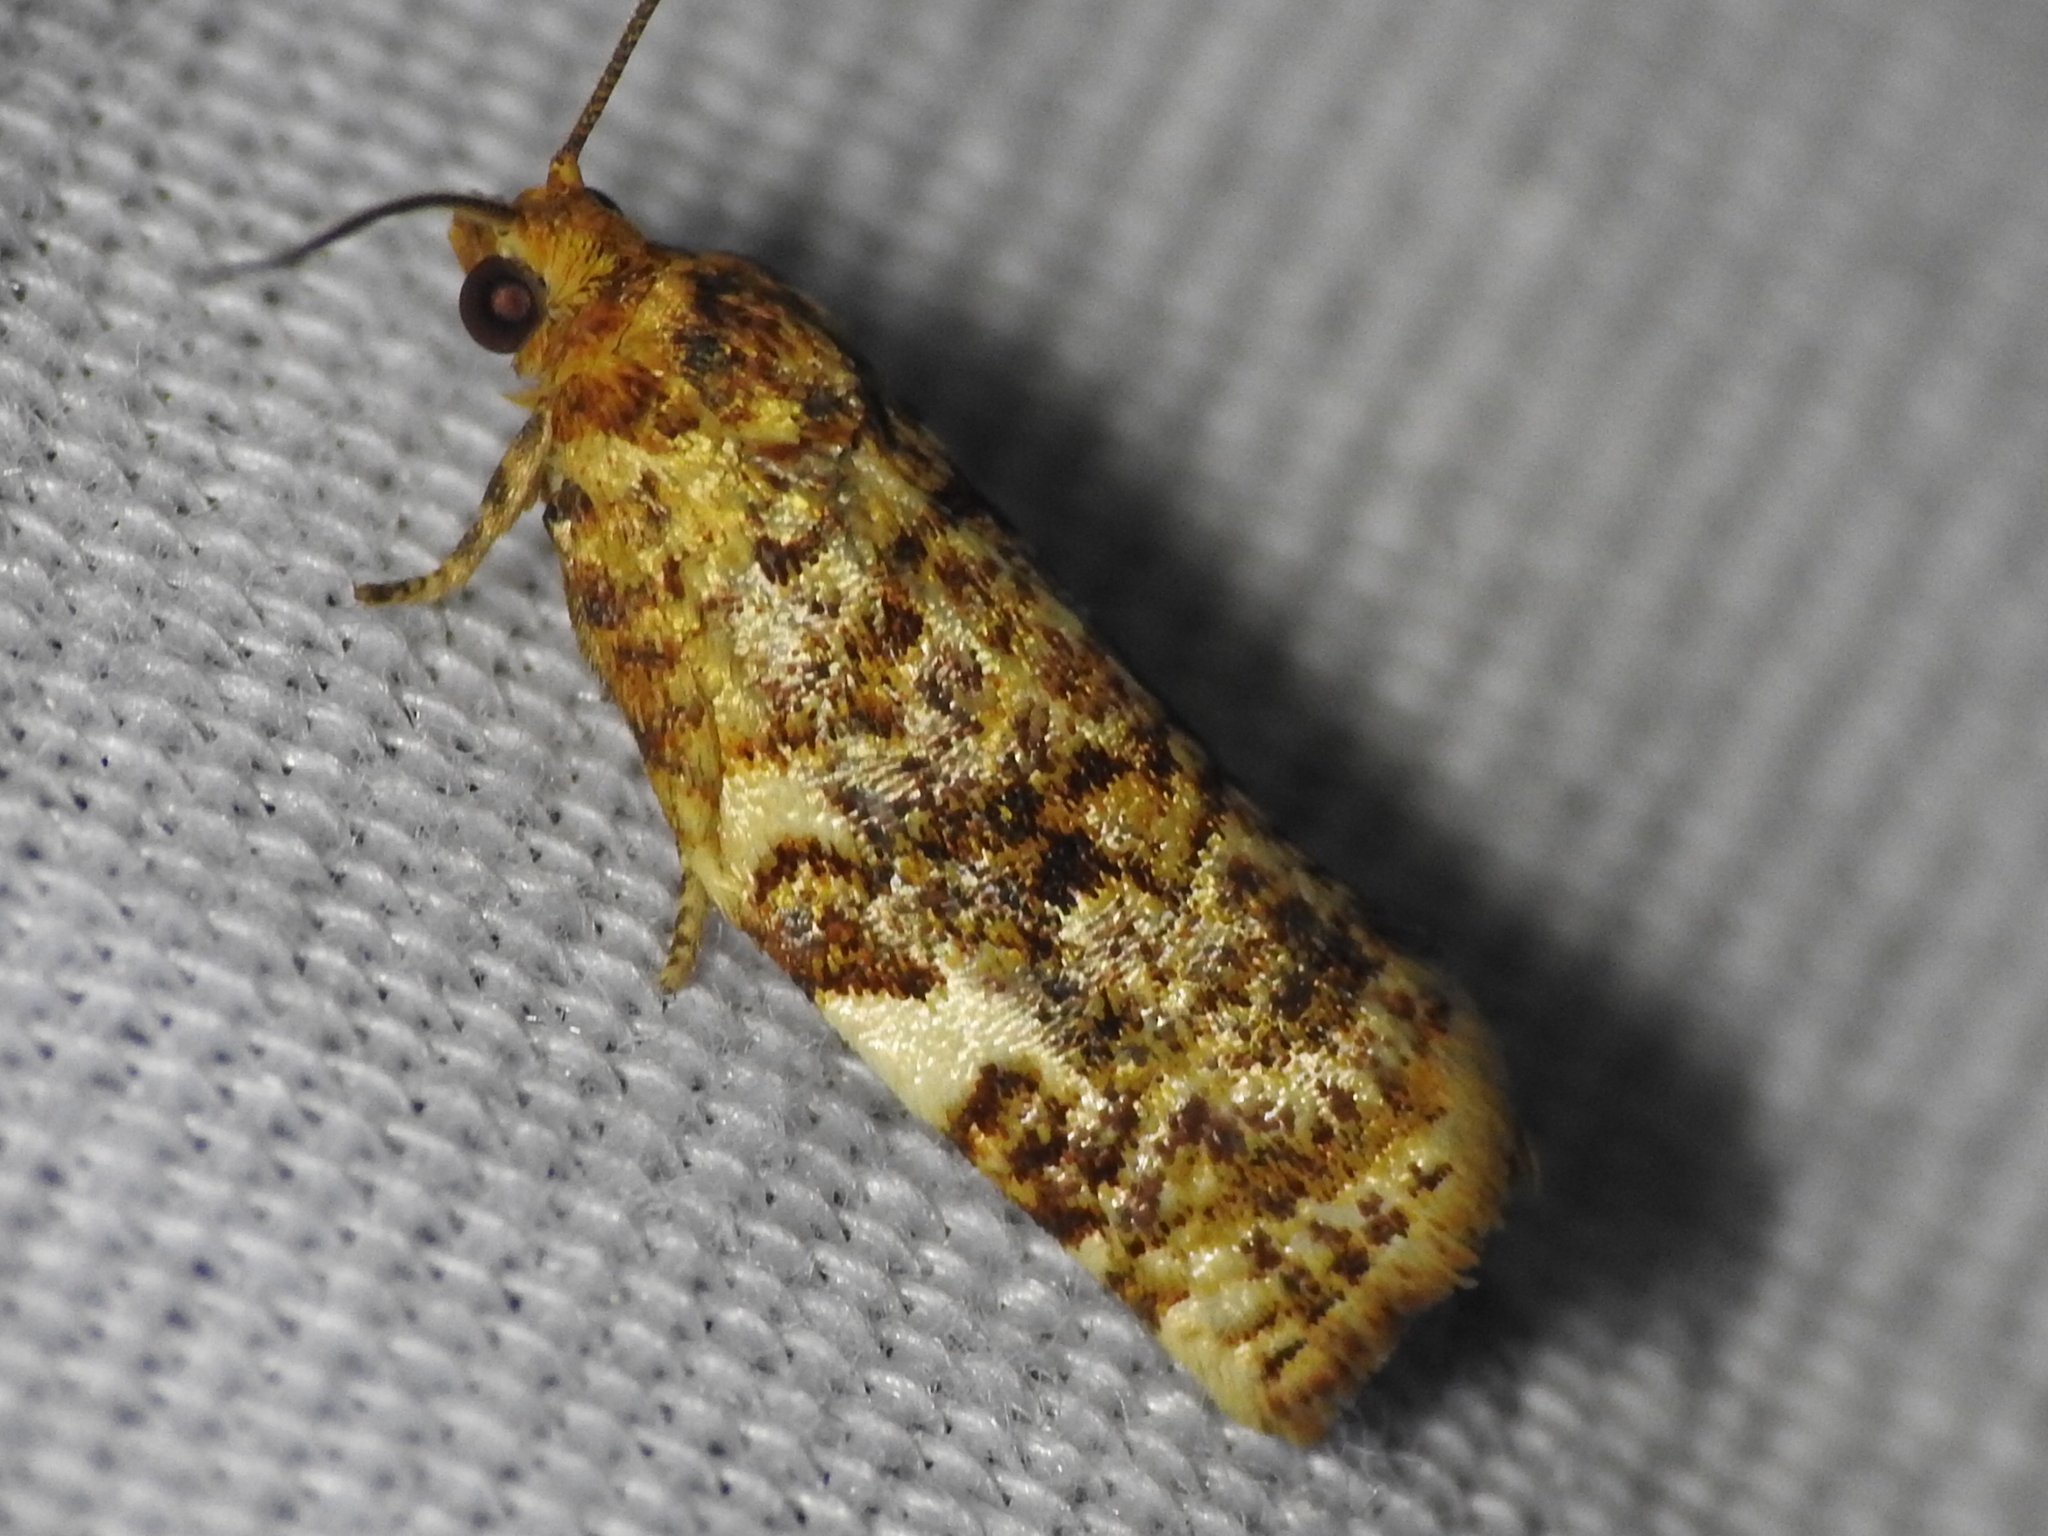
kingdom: Animalia
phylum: Arthropoda
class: Insecta
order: Lepidoptera
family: Tortricidae
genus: Archips
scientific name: Archips argyrospila
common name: Fruit-tree leafroller moth
